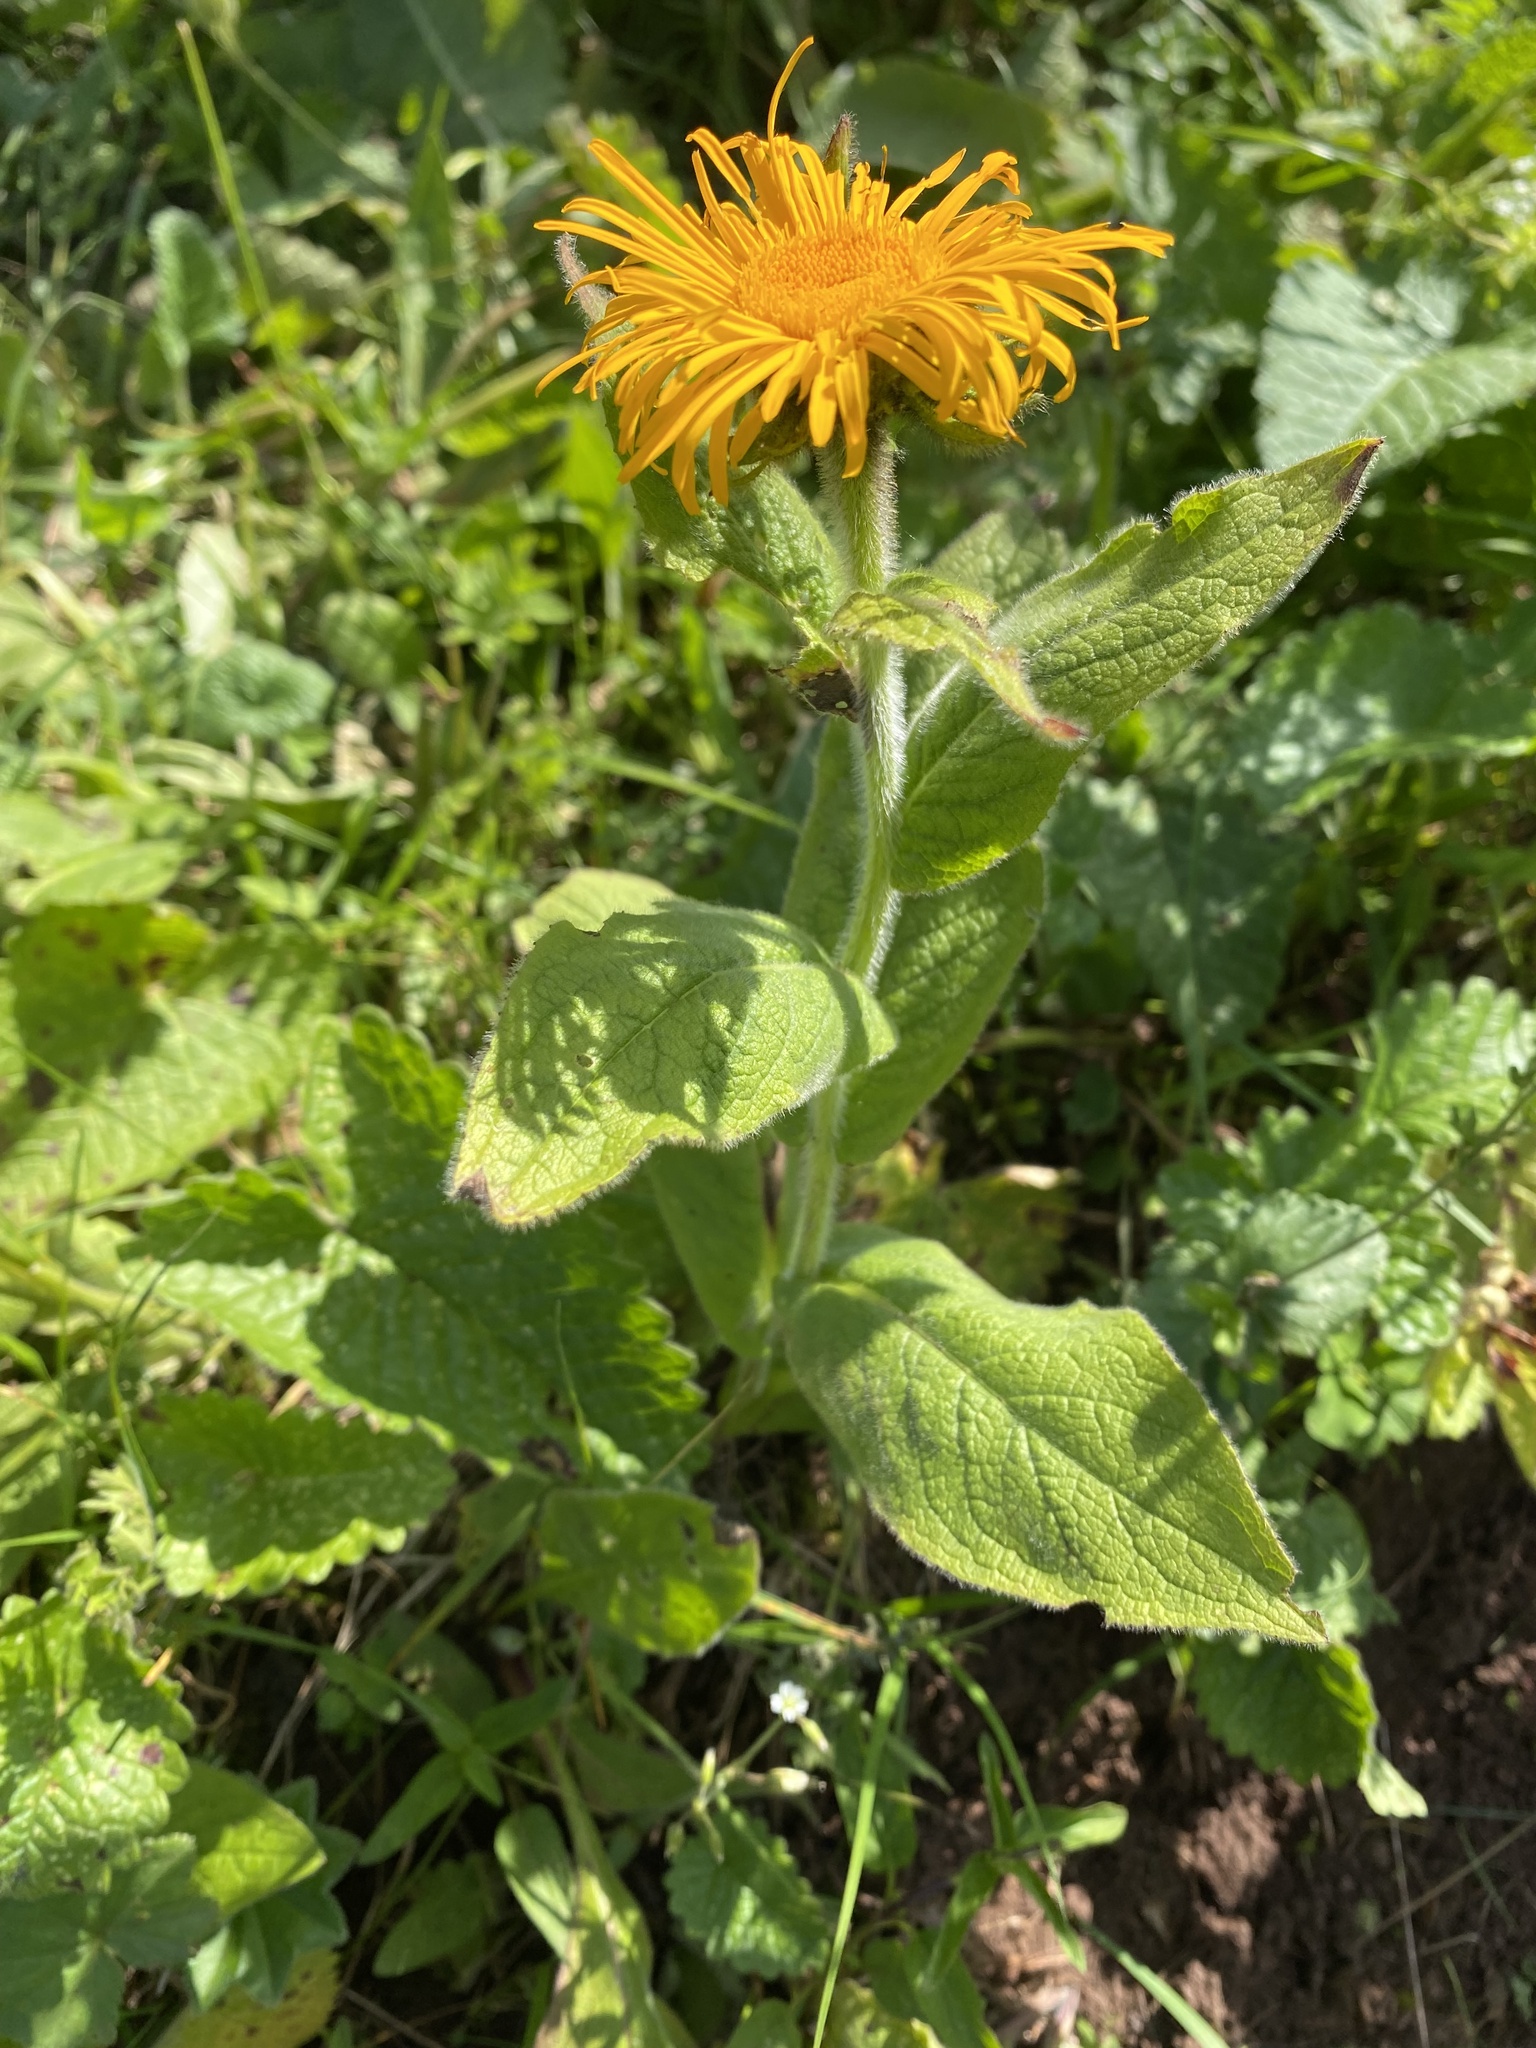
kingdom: Plantae
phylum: Tracheophyta
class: Magnoliopsida
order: Asterales
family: Asteraceae
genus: Pentanema
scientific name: Pentanema orientale
